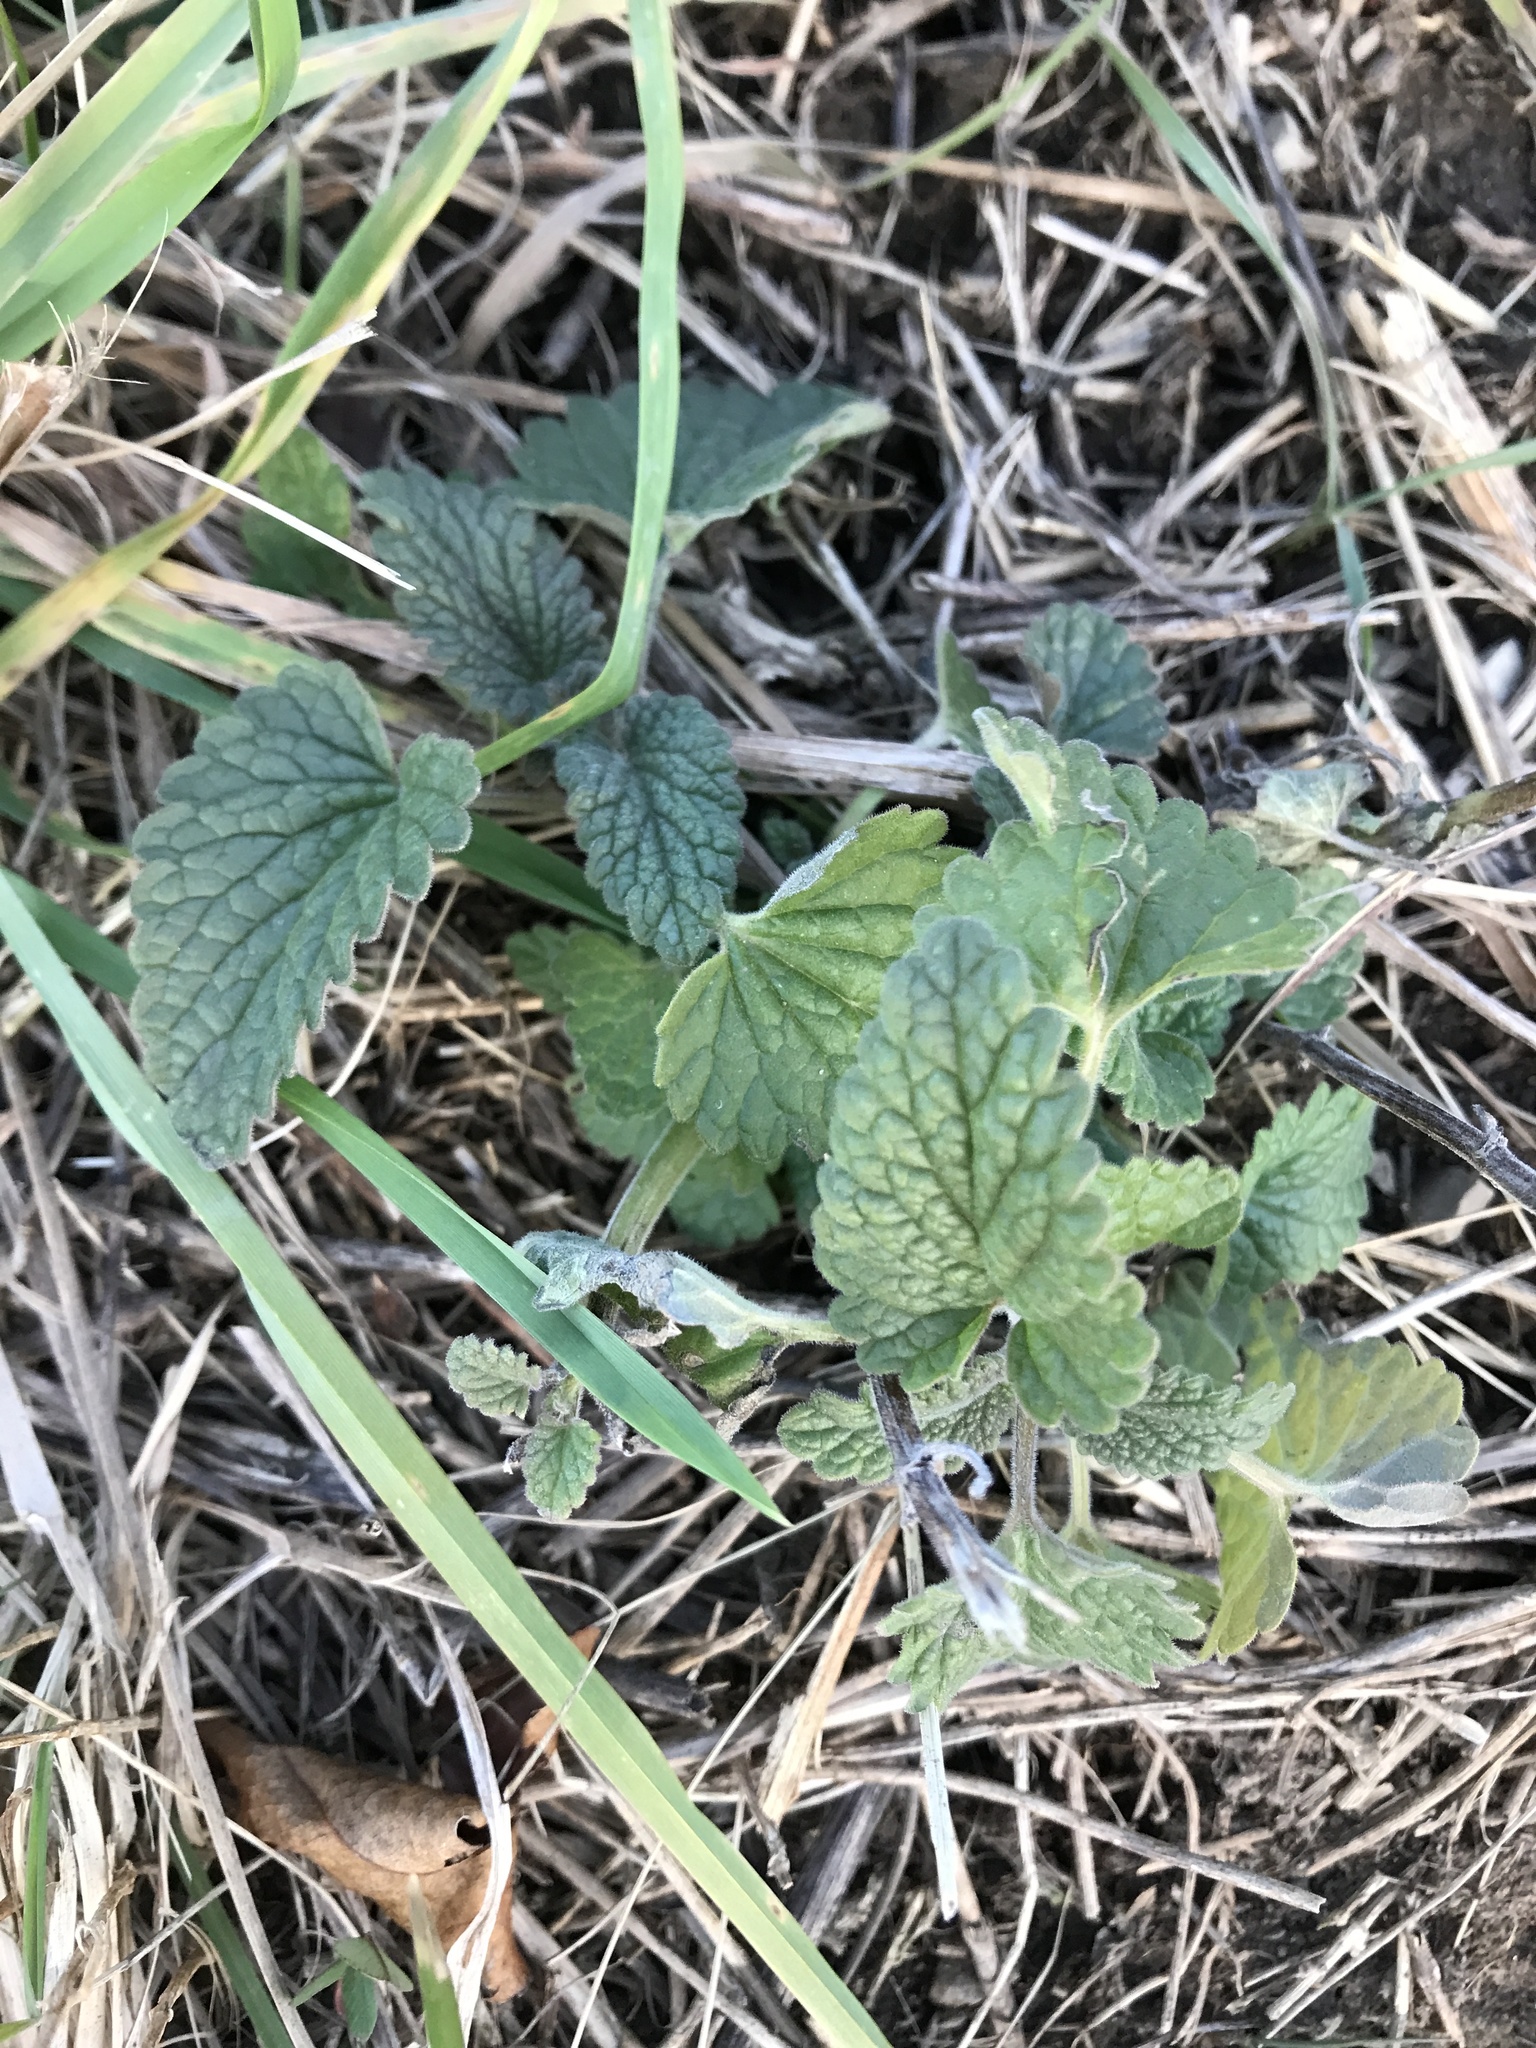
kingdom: Plantae
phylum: Tracheophyta
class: Magnoliopsida
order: Lamiales
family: Lamiaceae
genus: Nepeta
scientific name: Nepeta cataria
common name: Catnip
